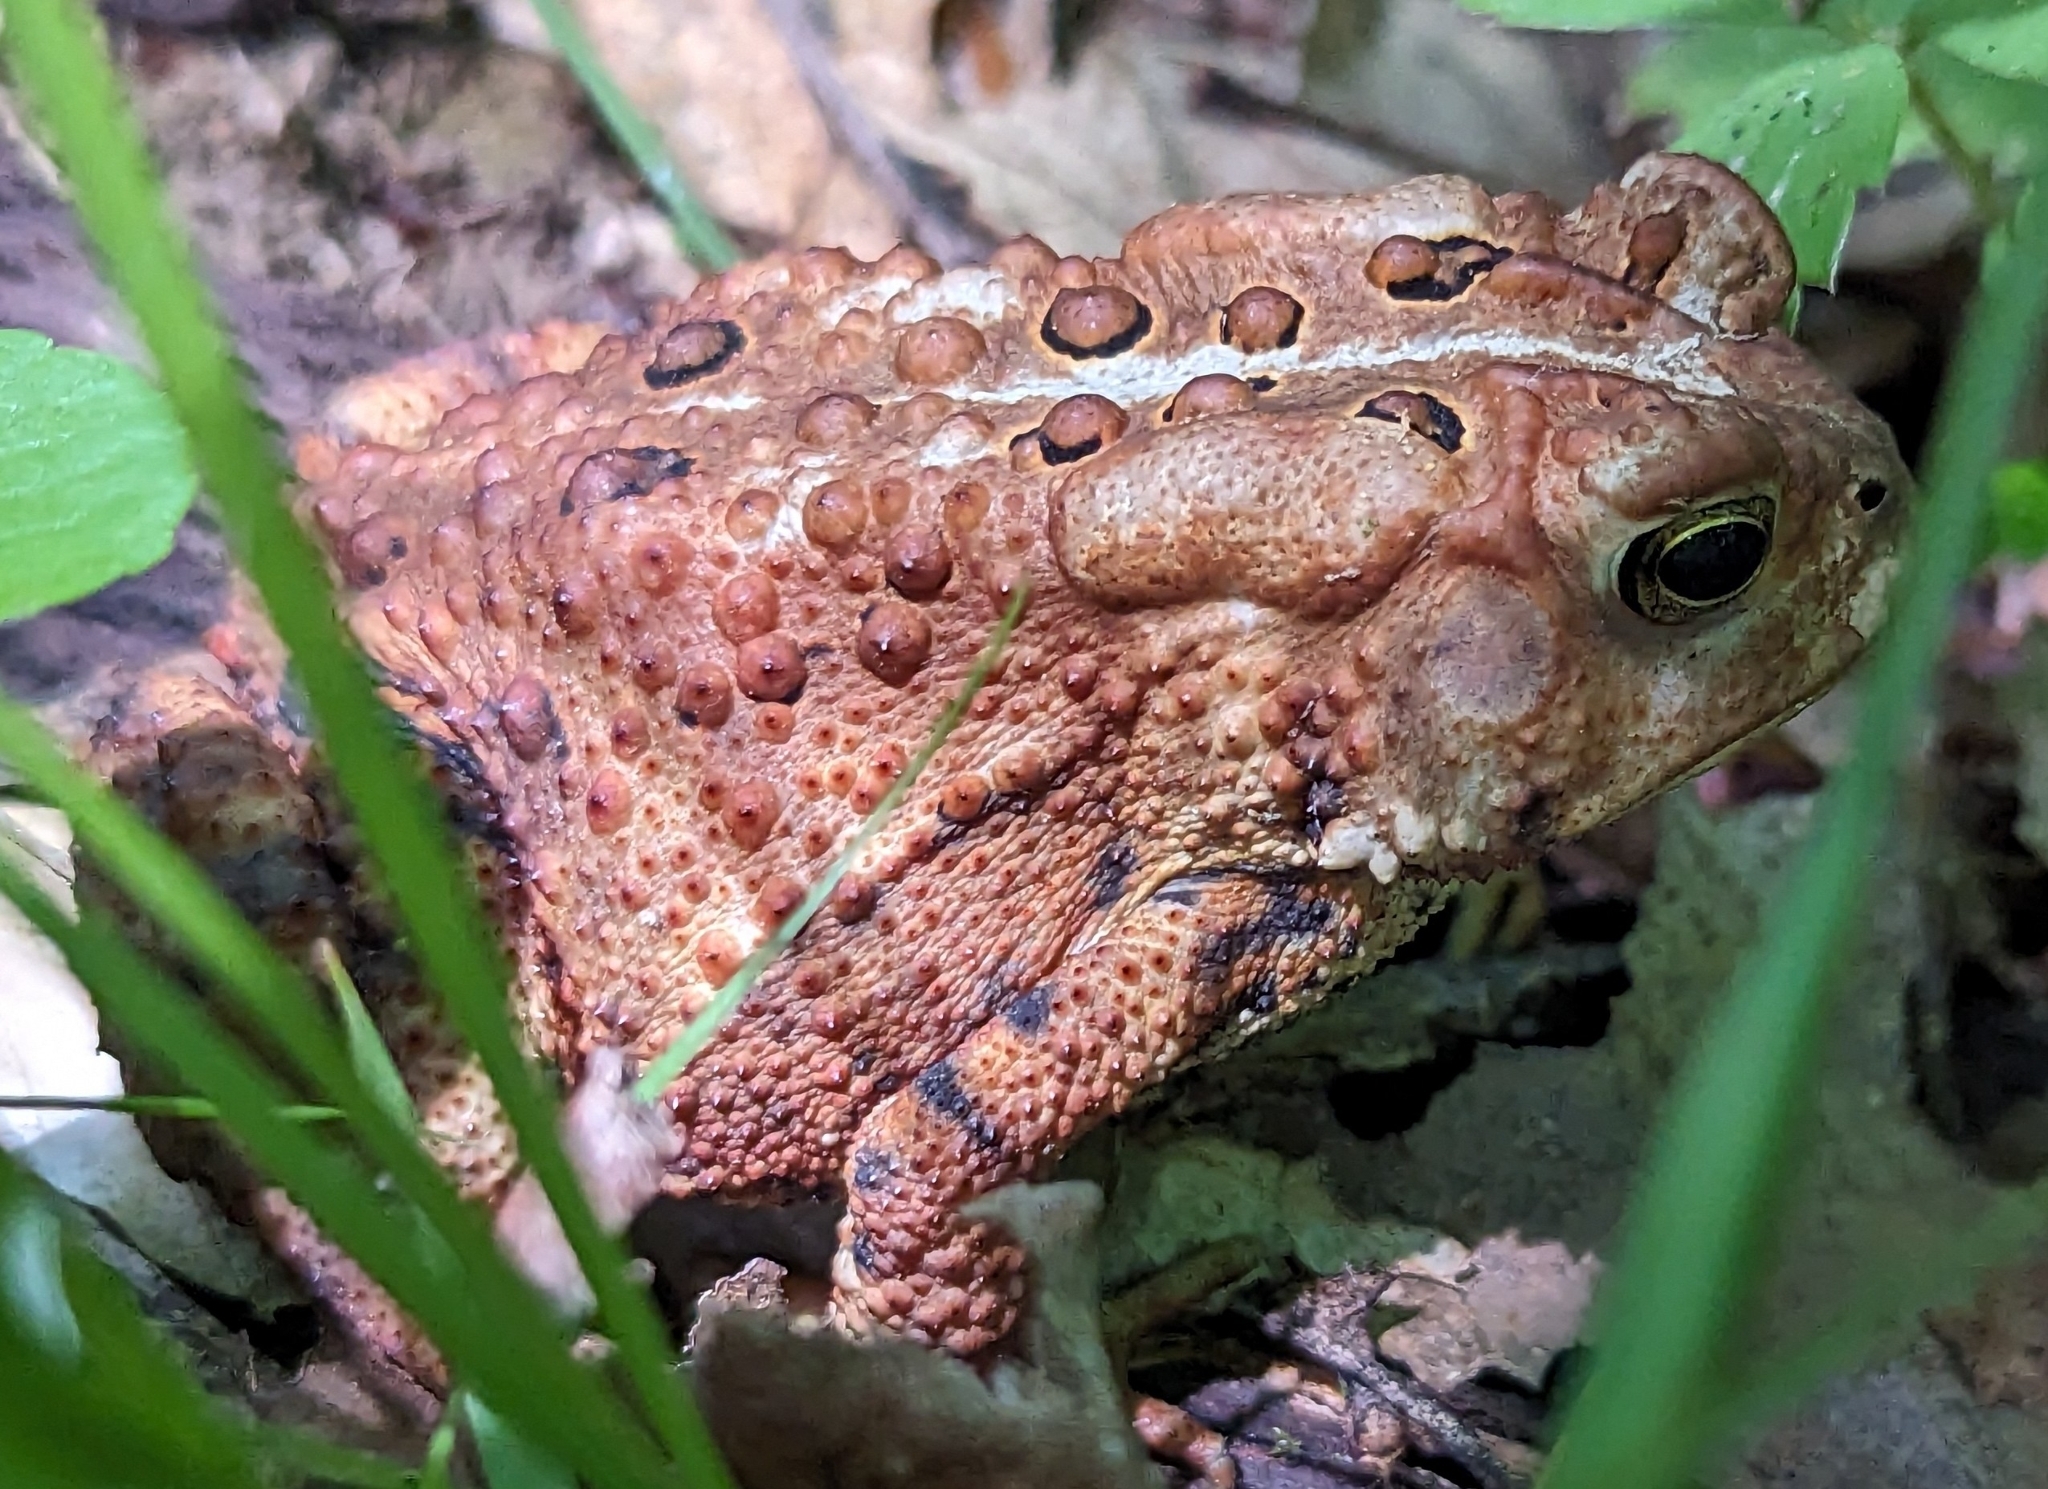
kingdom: Animalia
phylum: Chordata
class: Amphibia
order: Anura
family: Bufonidae
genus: Anaxyrus
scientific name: Anaxyrus americanus
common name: American toad
